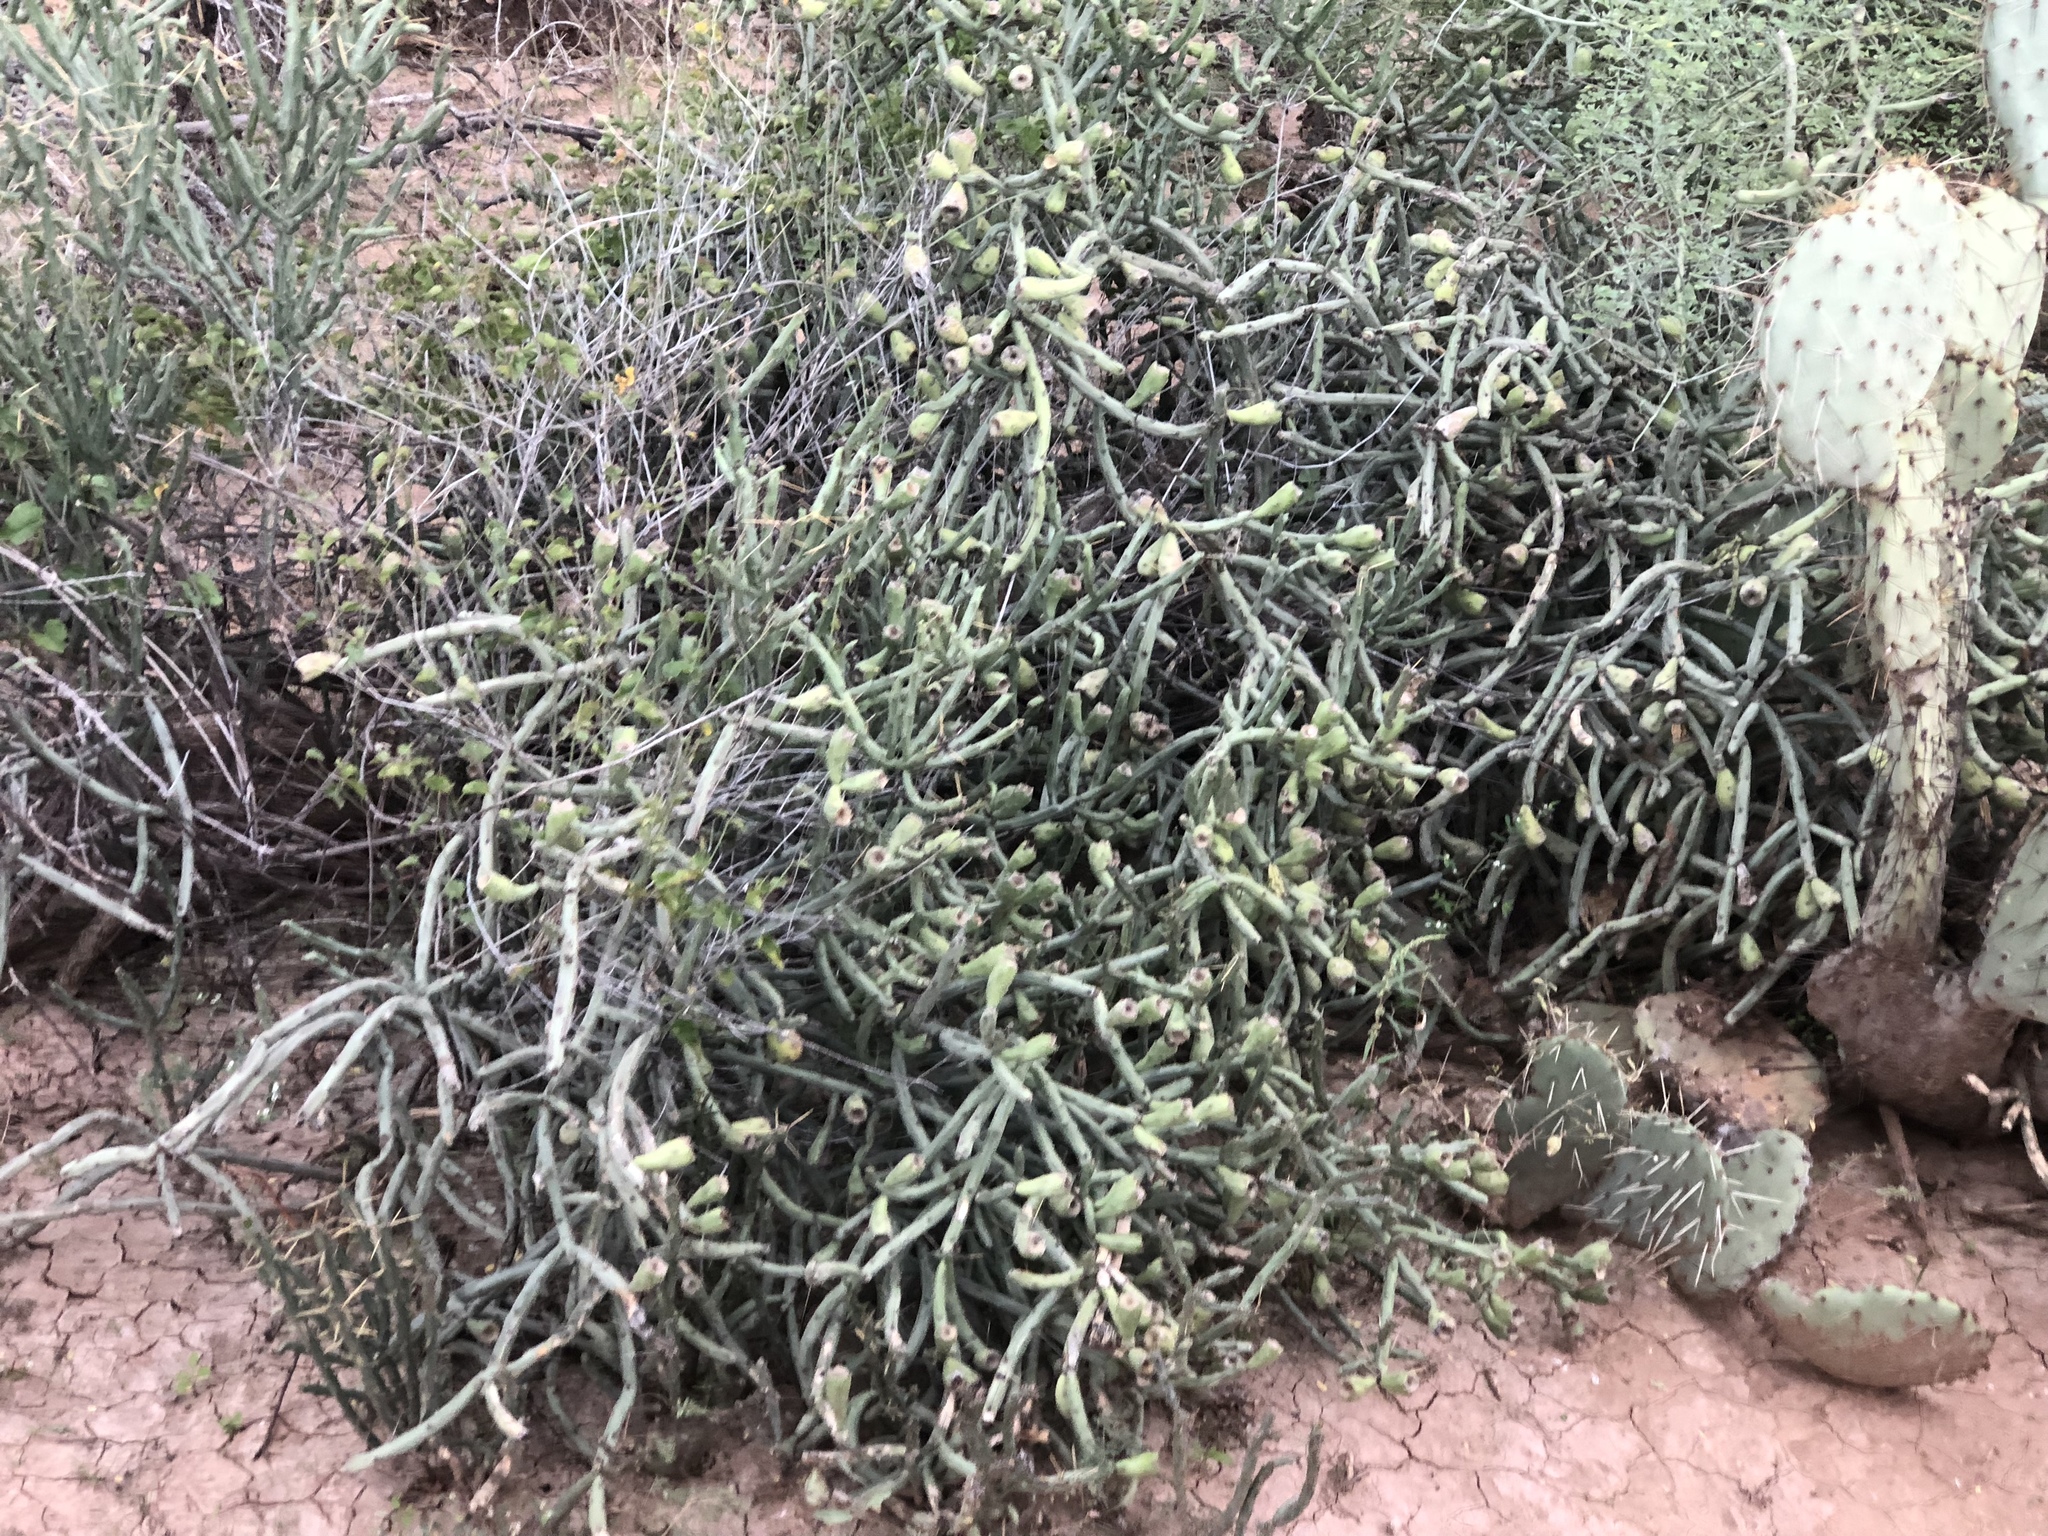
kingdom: Plantae
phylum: Tracheophyta
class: Magnoliopsida
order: Caryophyllales
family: Cactaceae
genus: Cylindropuntia
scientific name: Cylindropuntia arbuscula
